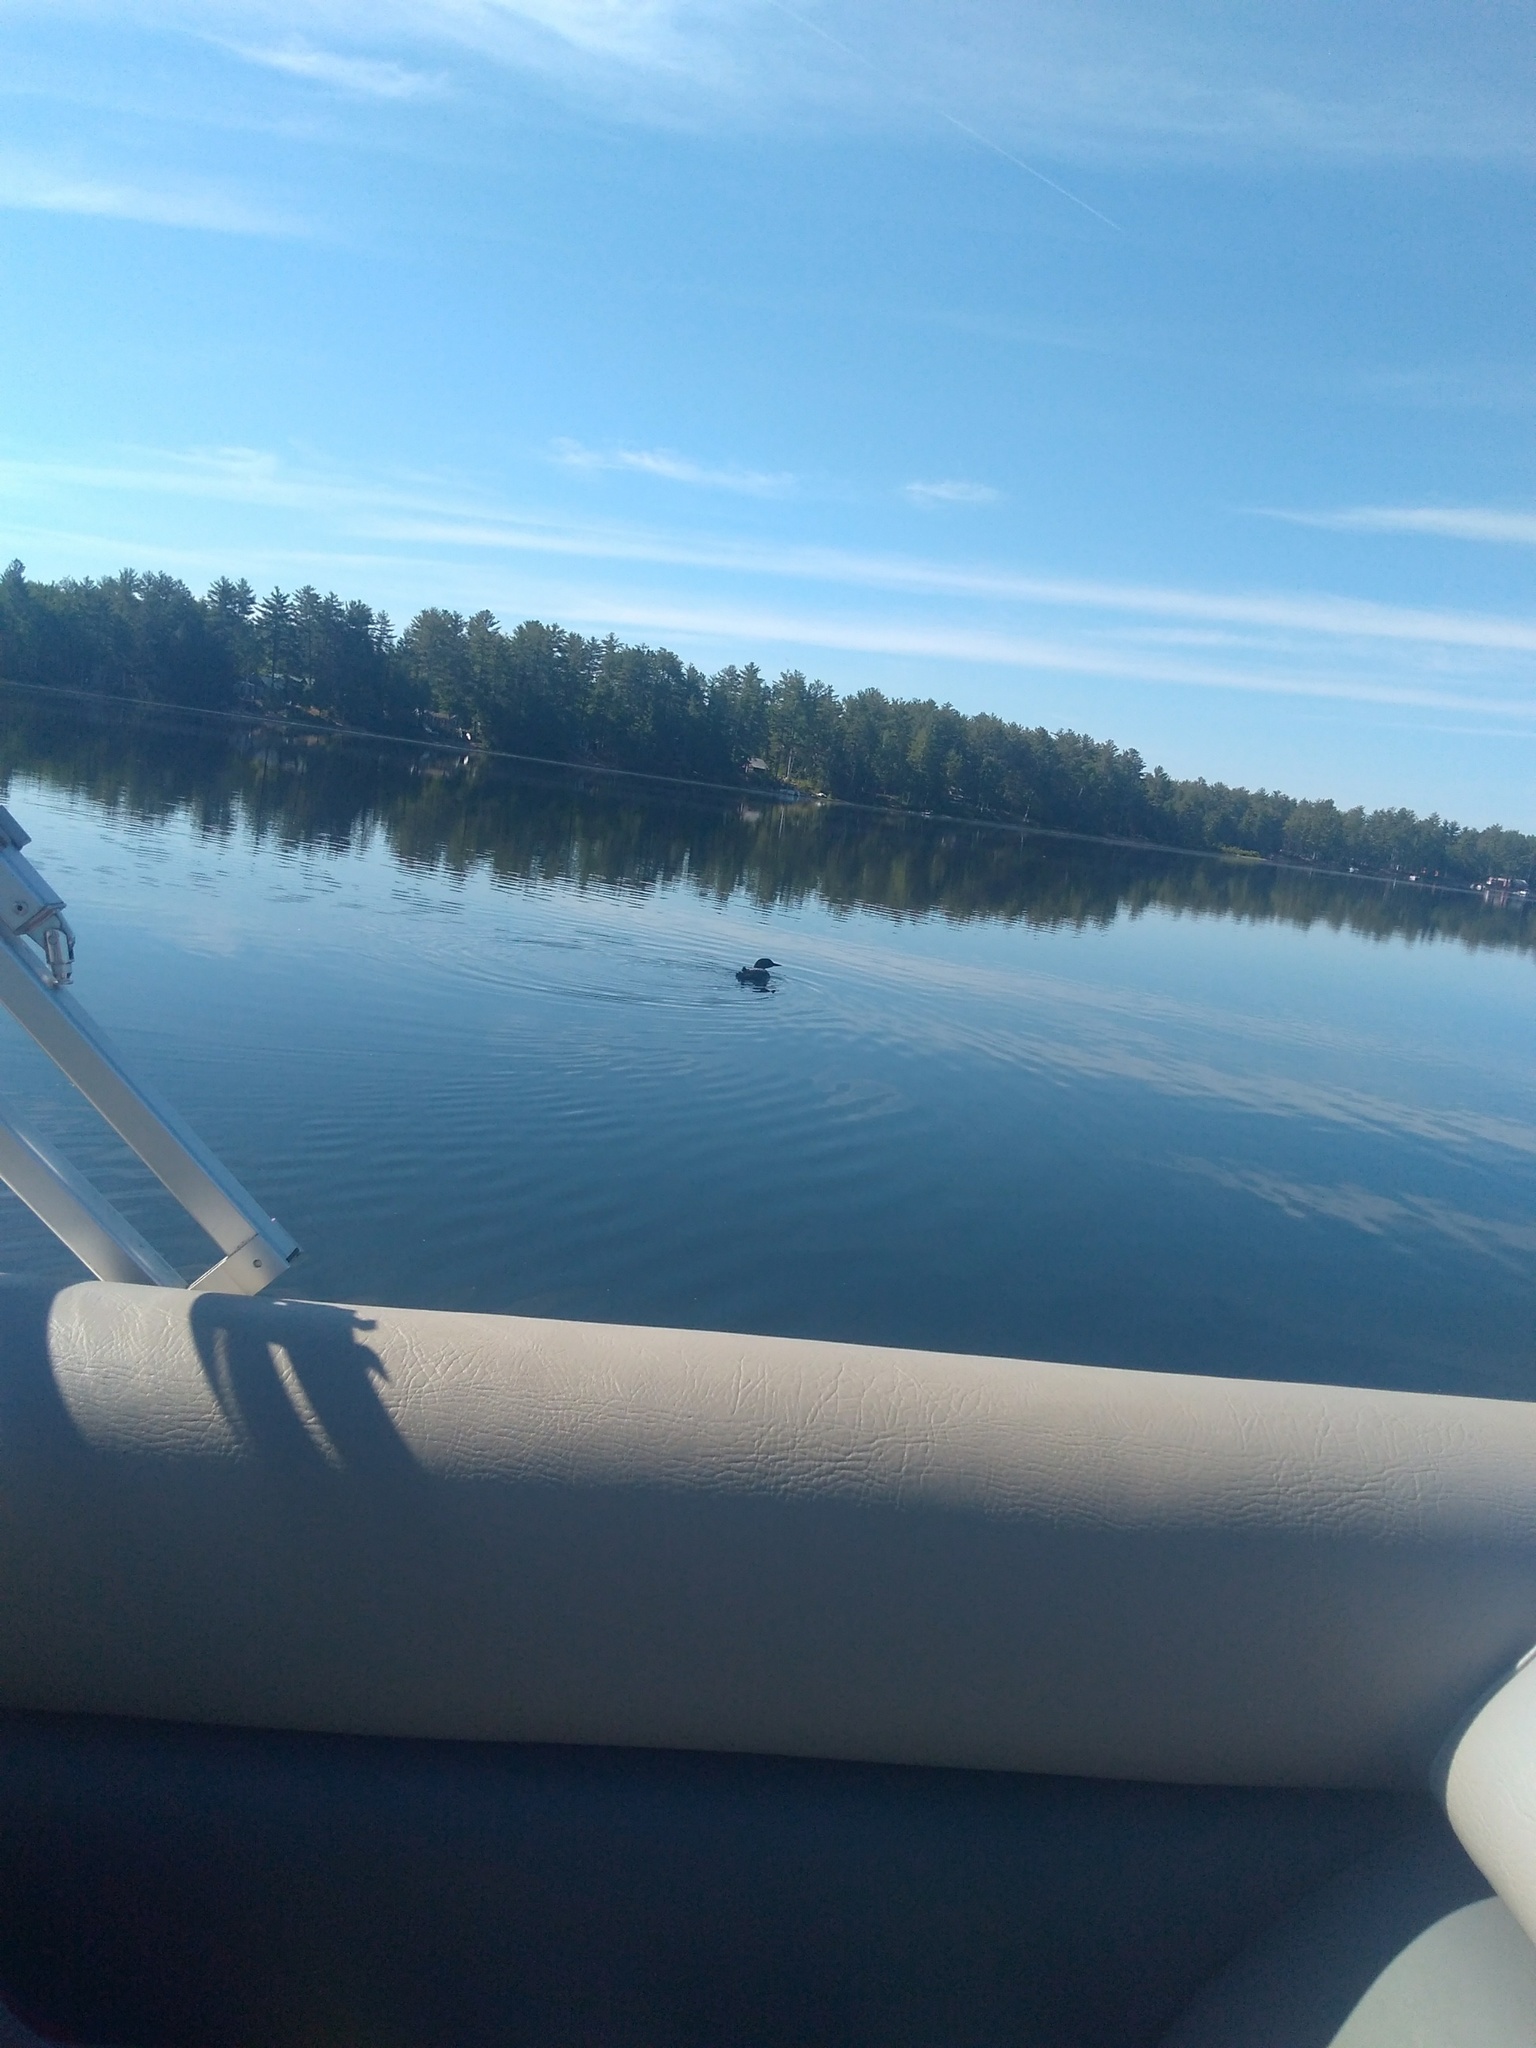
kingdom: Animalia
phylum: Chordata
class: Aves
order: Gaviiformes
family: Gaviidae
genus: Gavia
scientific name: Gavia immer
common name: Common loon
